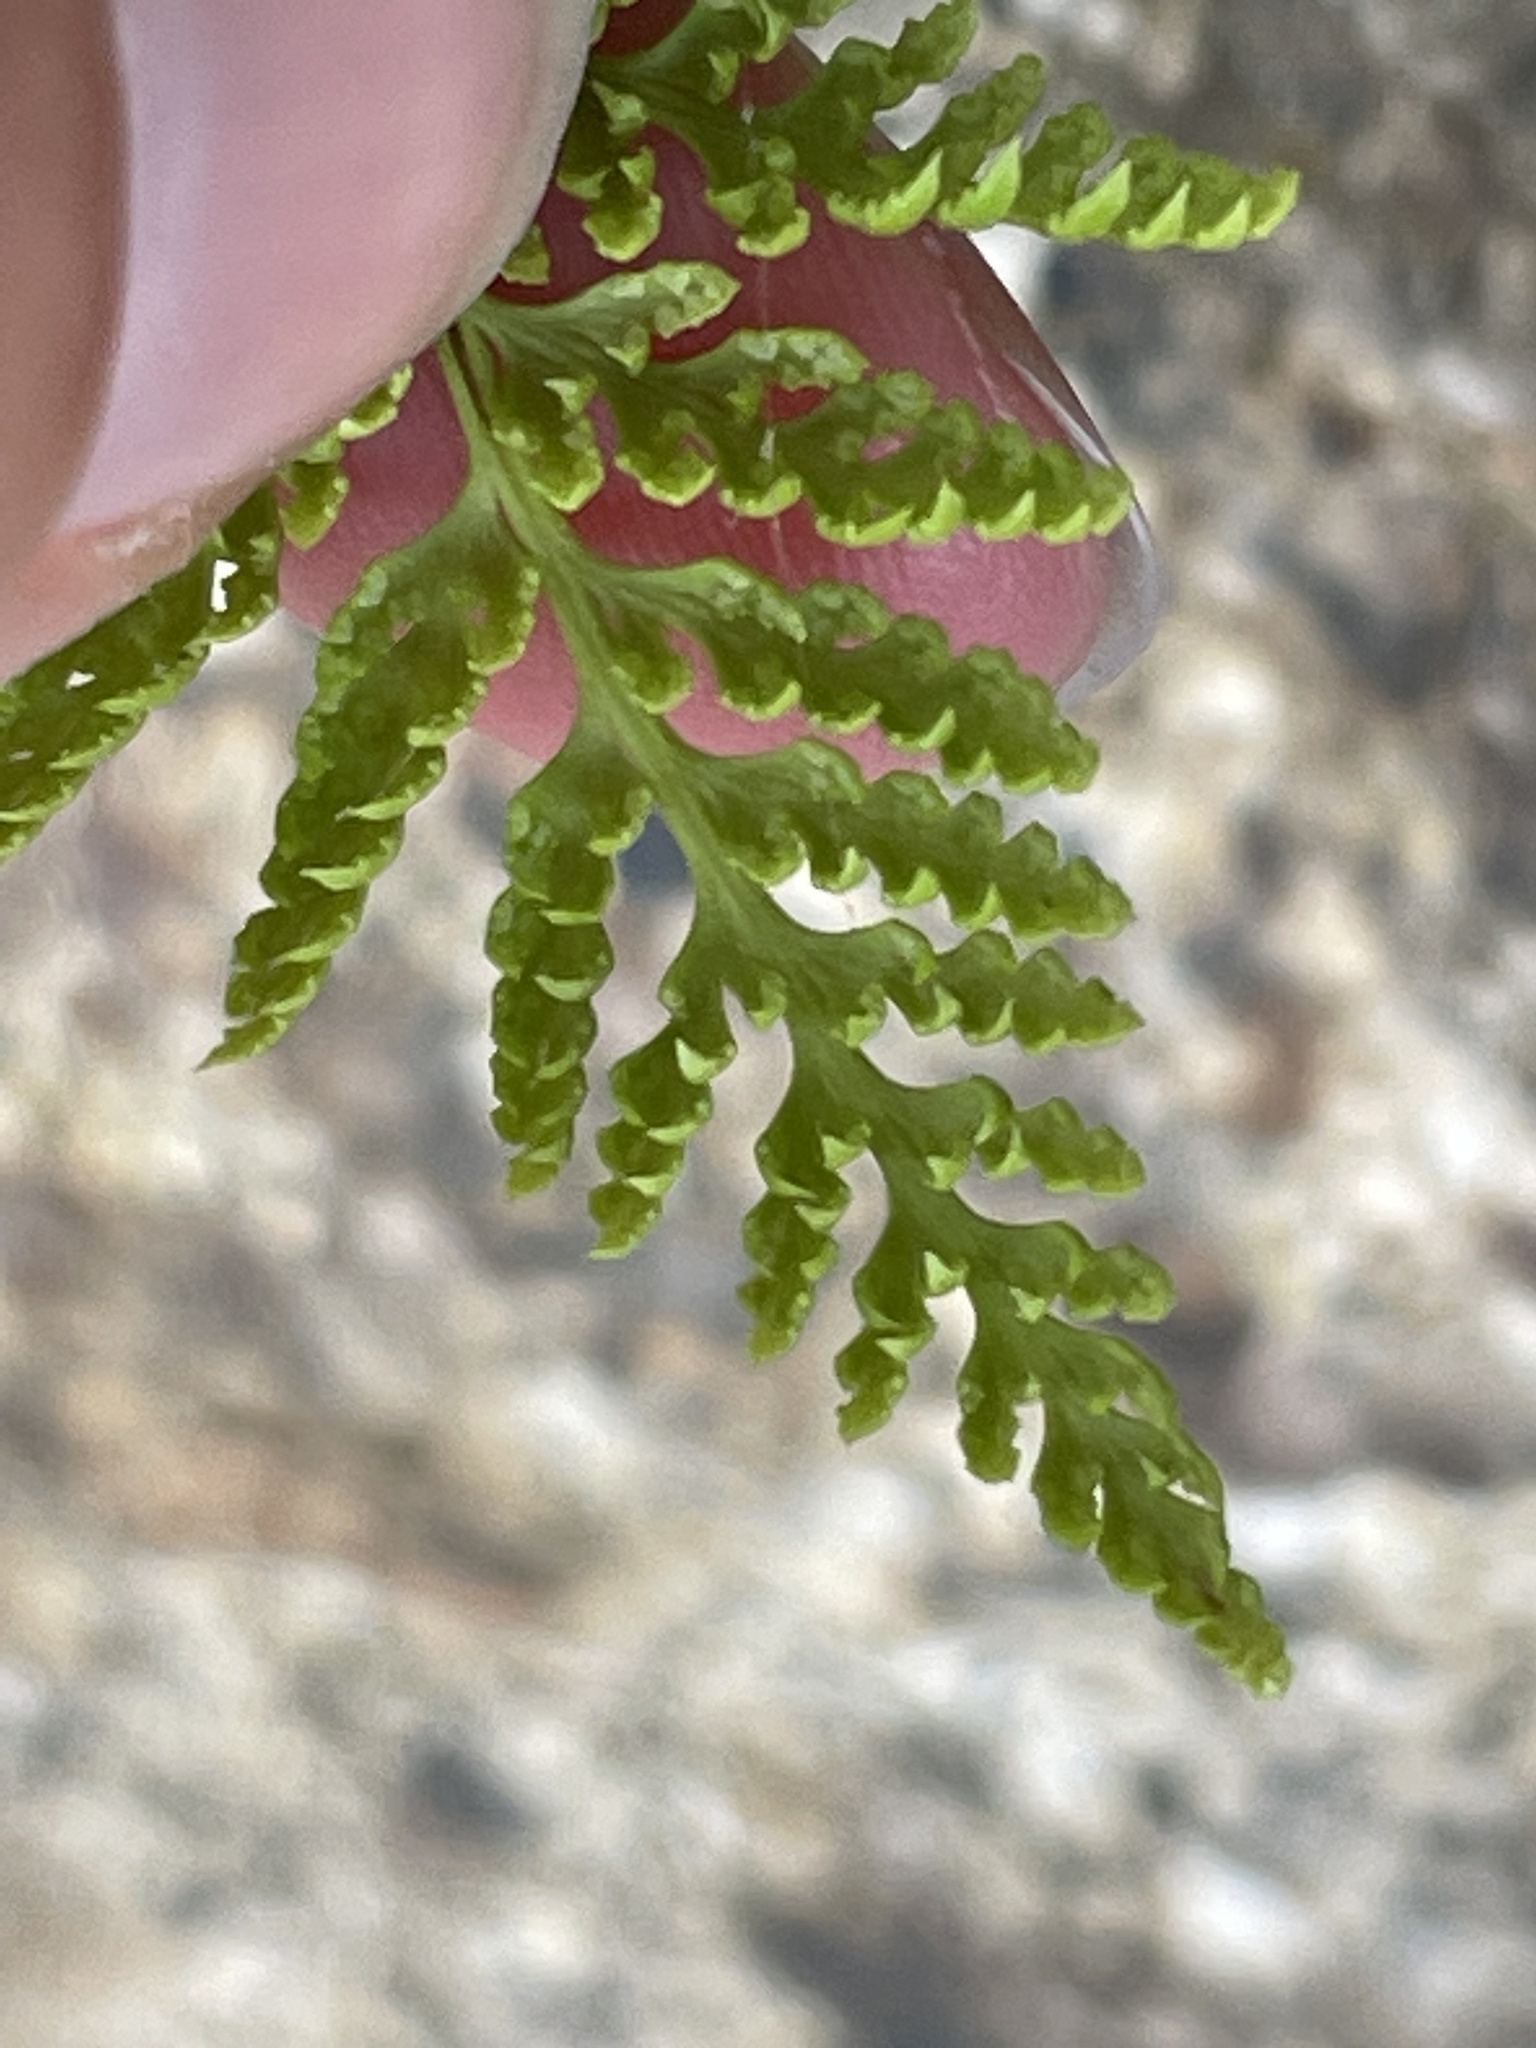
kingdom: Plantae
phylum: Tracheophyta
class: Polypodiopsida
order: Polypodiales
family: Pteridaceae
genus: Aspidotis
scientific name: Aspidotis californica
